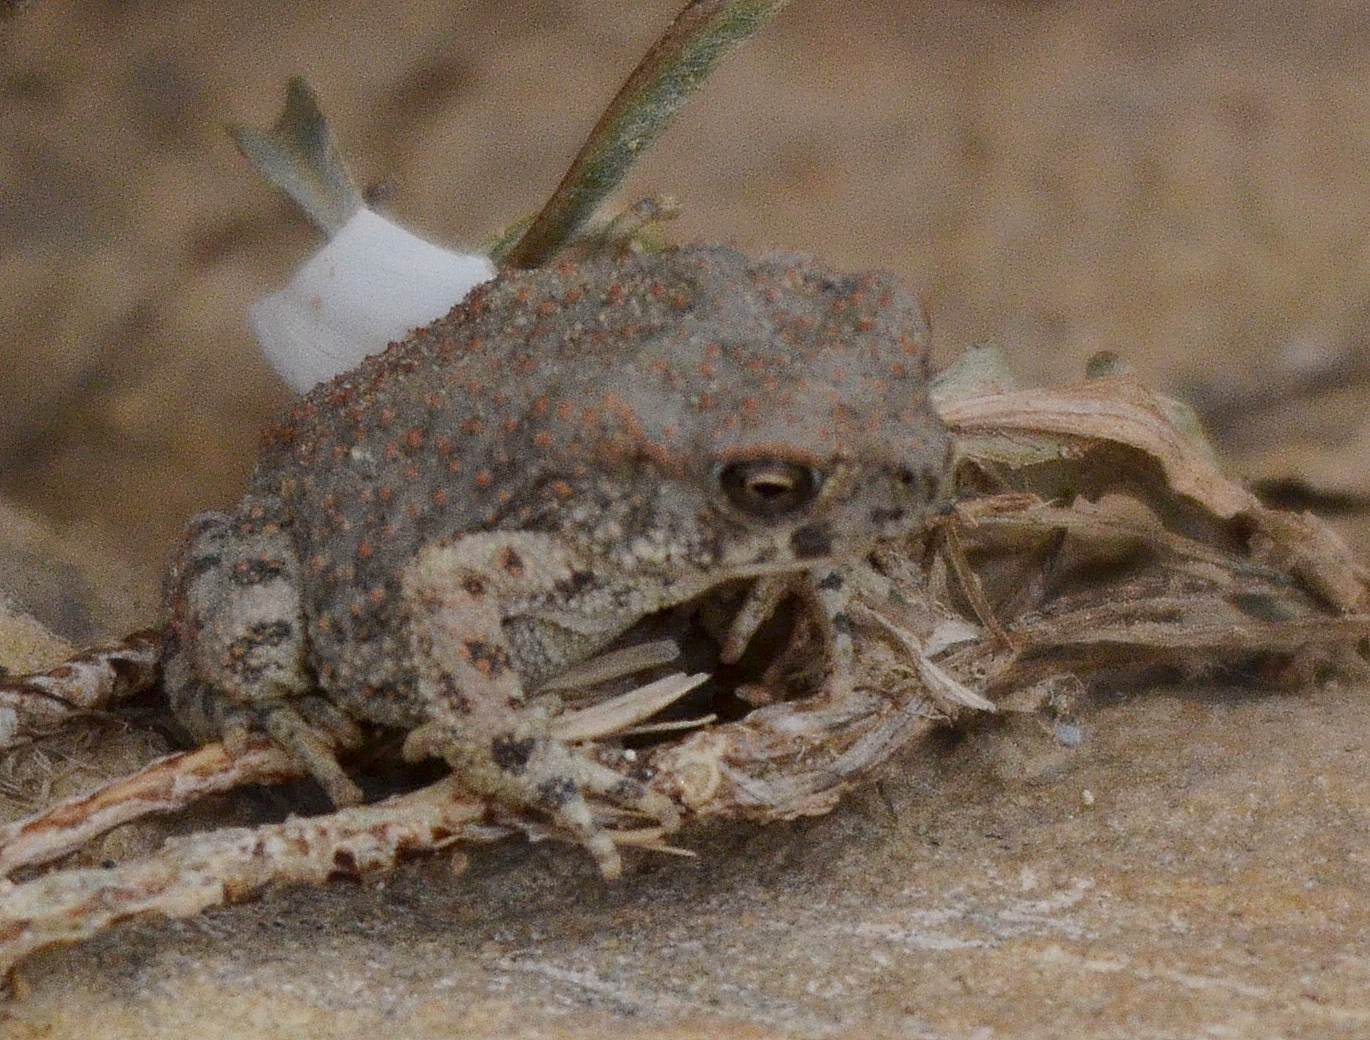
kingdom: Animalia
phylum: Chordata
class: Amphibia
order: Anura
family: Bufonidae
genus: Sclerophrys
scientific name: Sclerophrys mauritanica
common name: Berber toad
